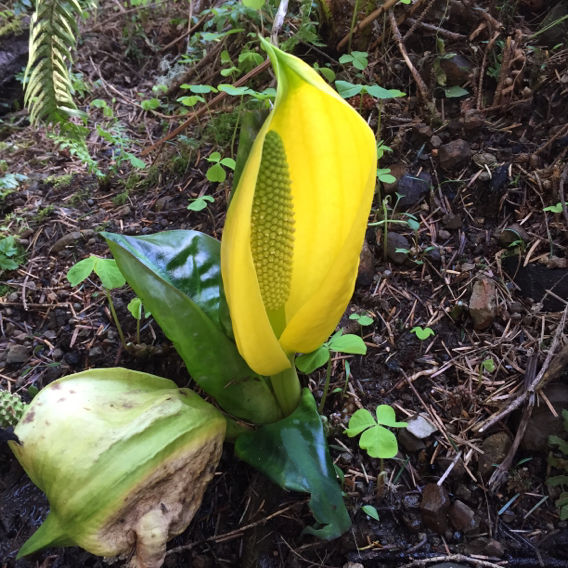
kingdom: Plantae
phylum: Tracheophyta
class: Liliopsida
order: Alismatales
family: Araceae
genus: Lysichiton
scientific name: Lysichiton americanus
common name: American skunk cabbage
